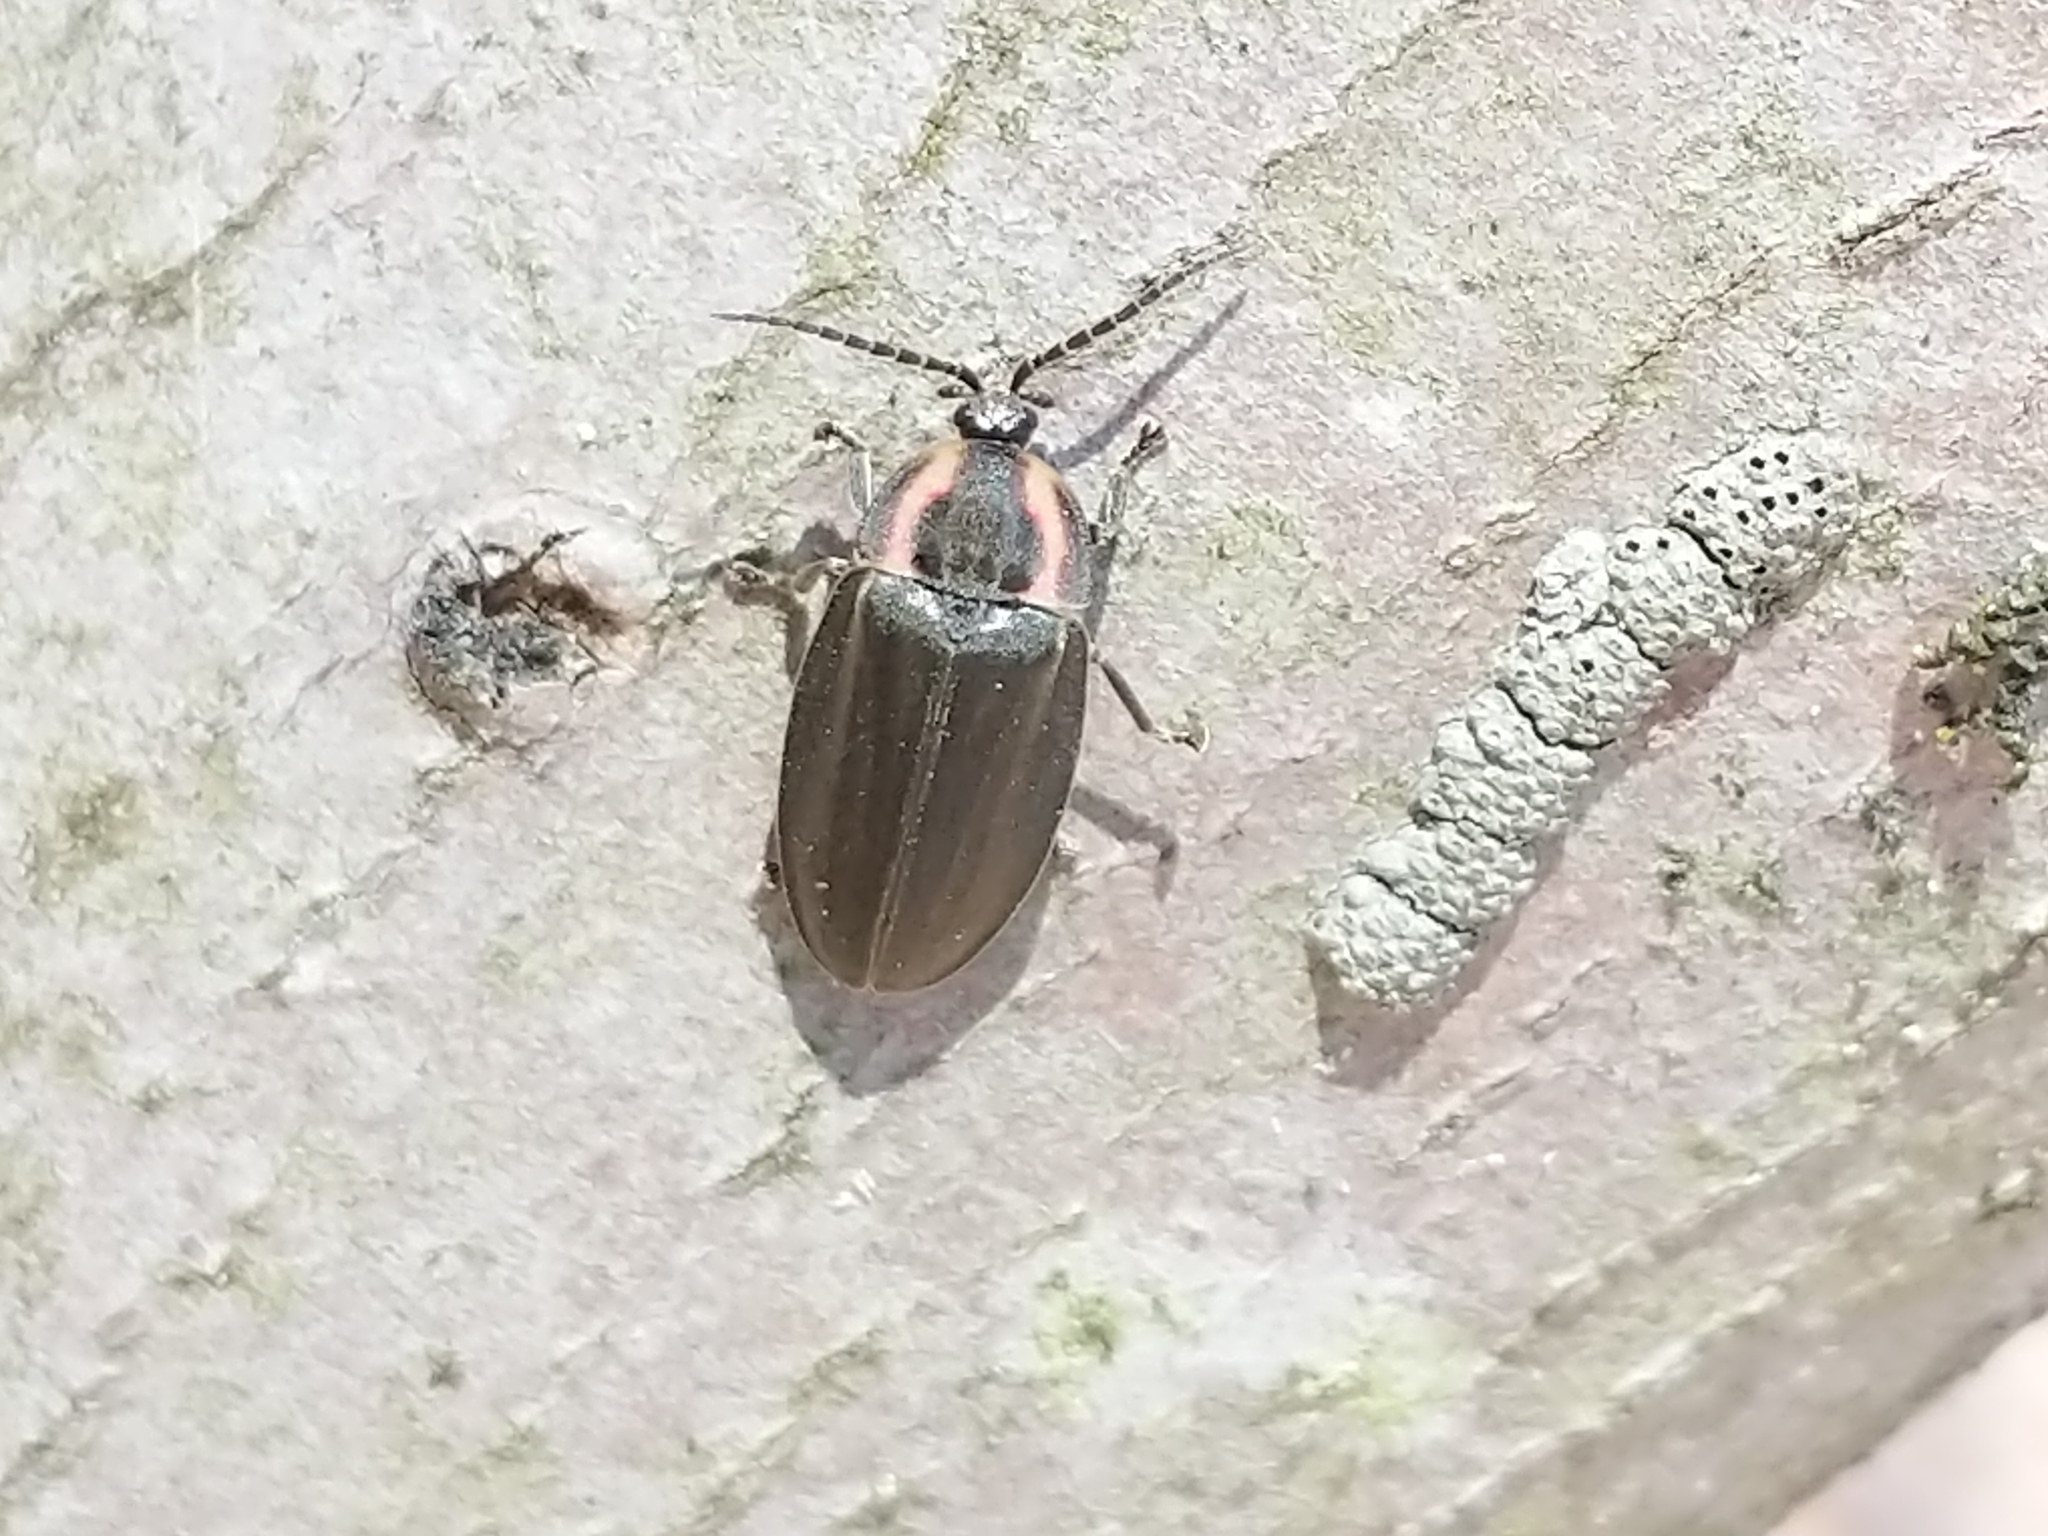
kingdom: Animalia
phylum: Arthropoda
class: Insecta
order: Coleoptera
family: Lampyridae
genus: Photinus
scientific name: Photinus corrusca
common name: Winter firefly
